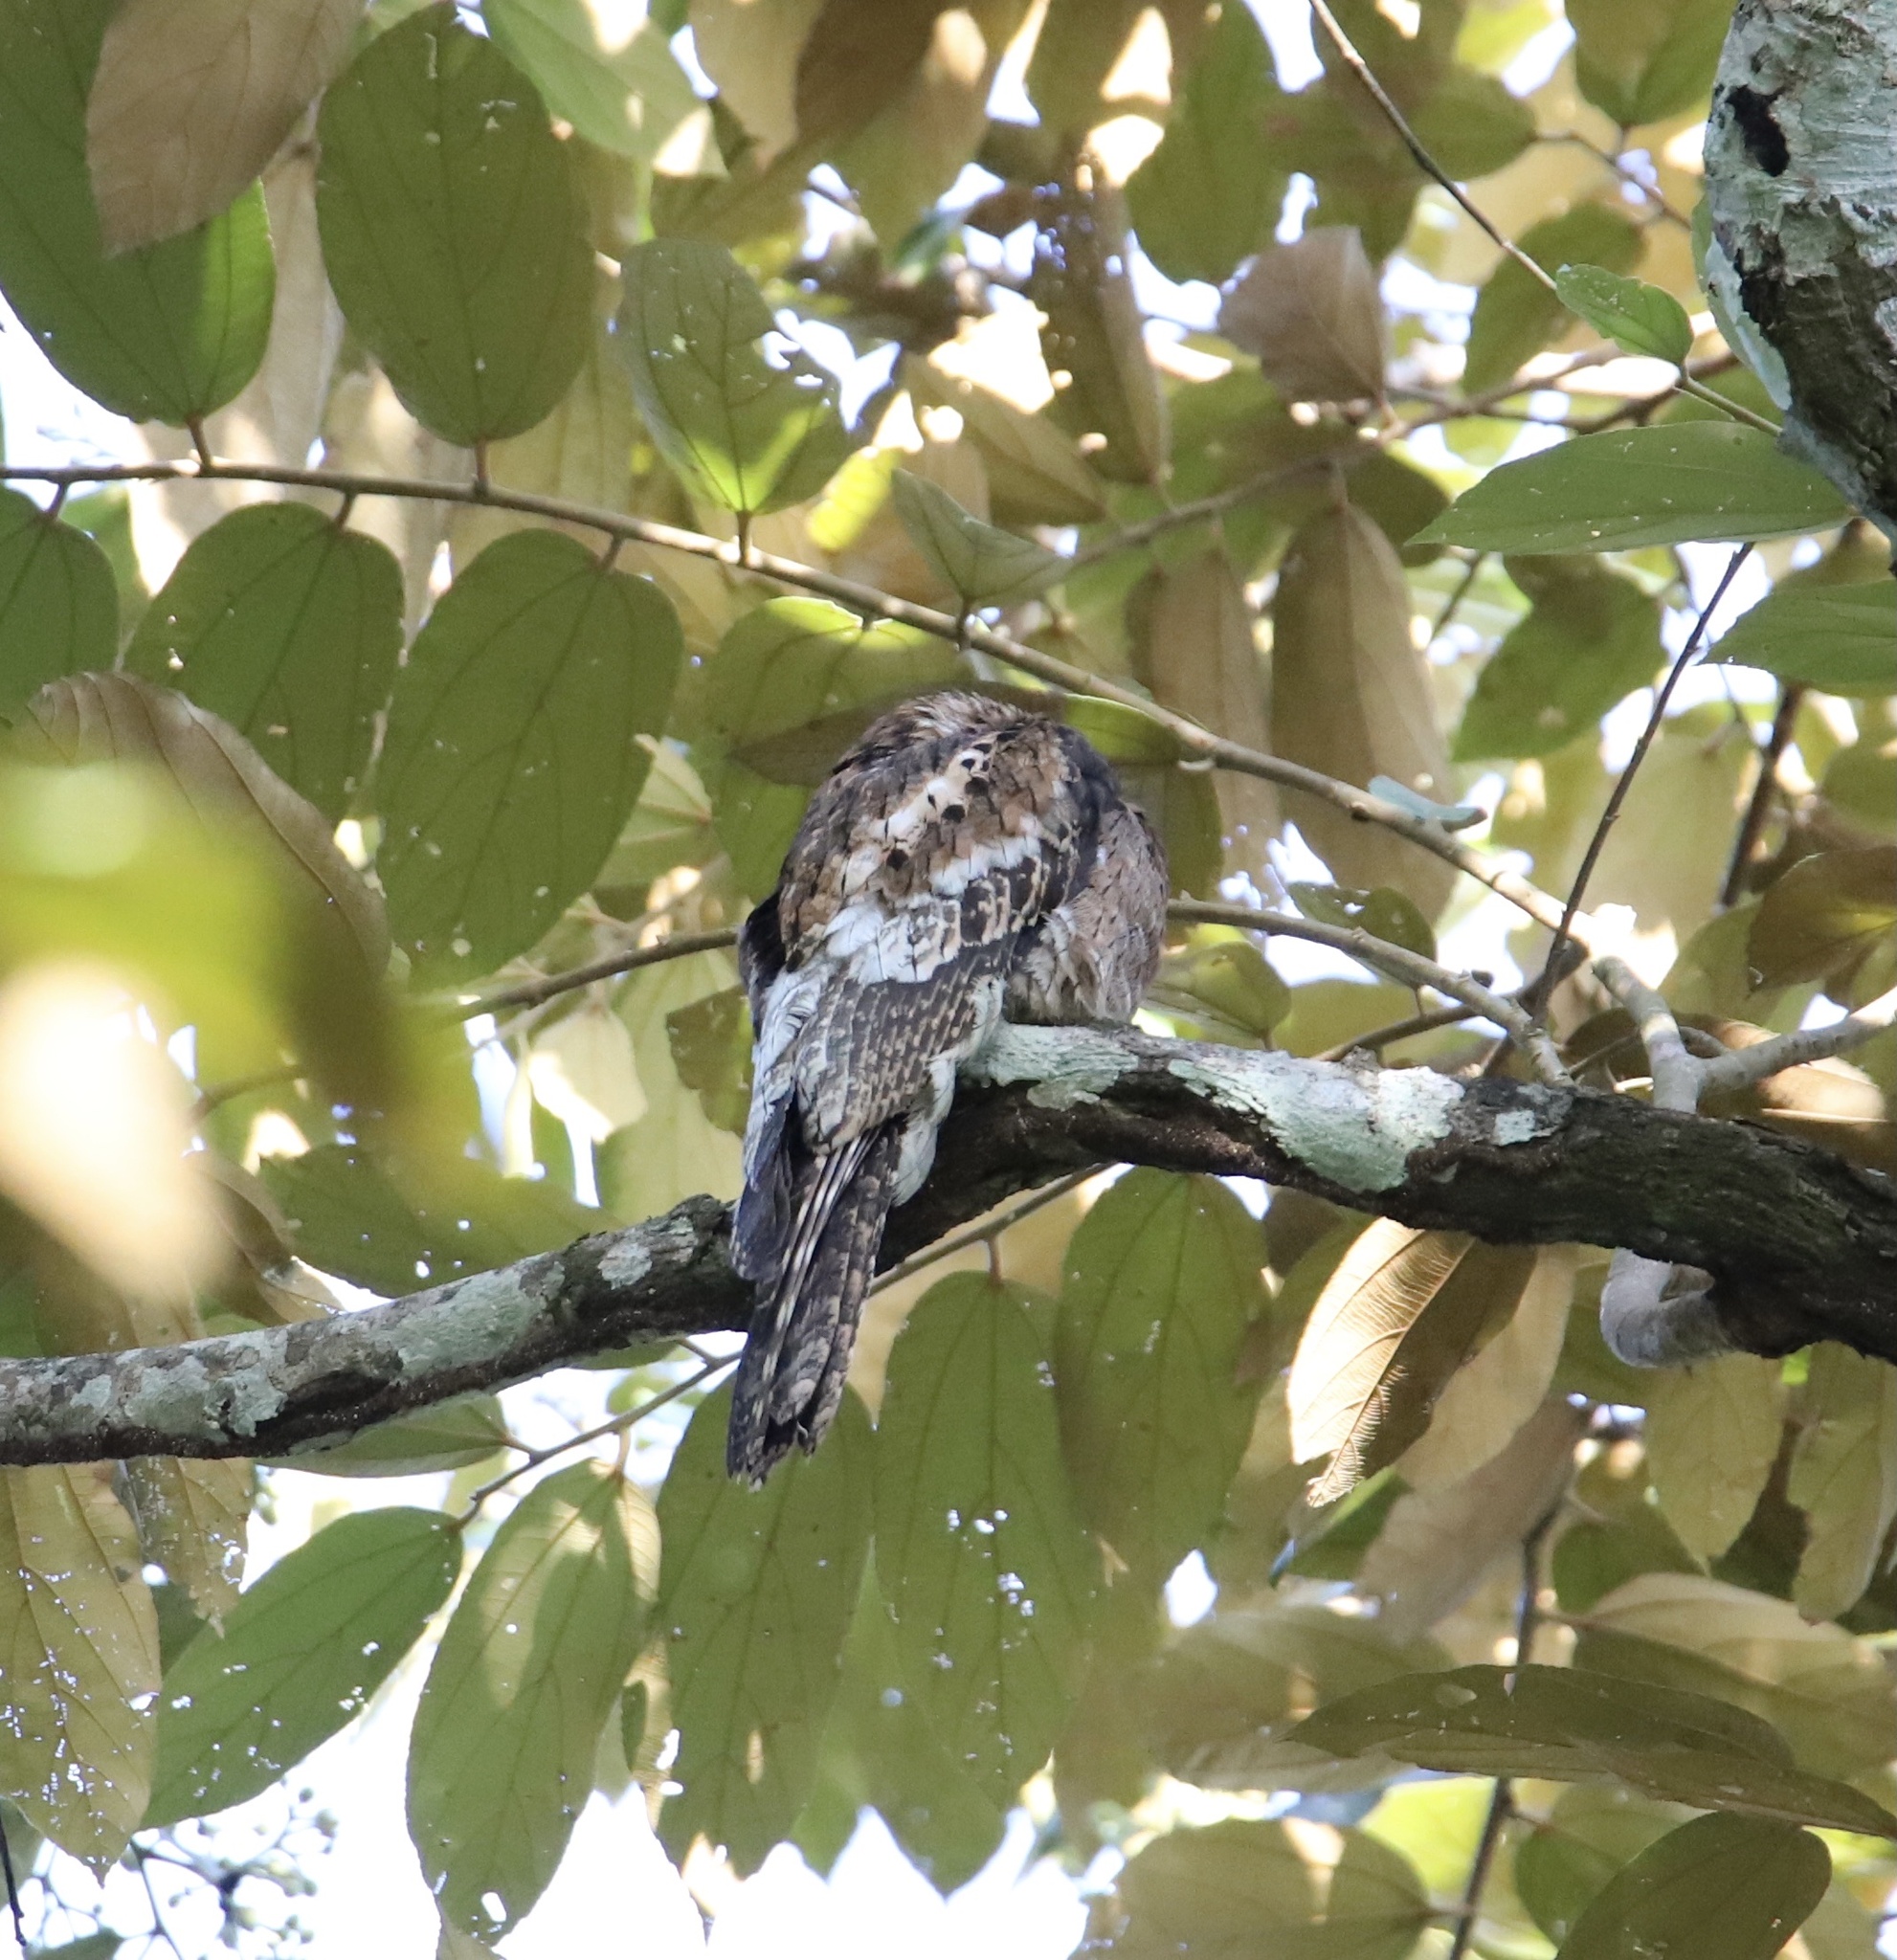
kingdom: Animalia
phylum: Chordata
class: Aves
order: Nyctibiiformes
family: Nyctibiidae
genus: Nyctibius
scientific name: Nyctibius griseus
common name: Common potoo
